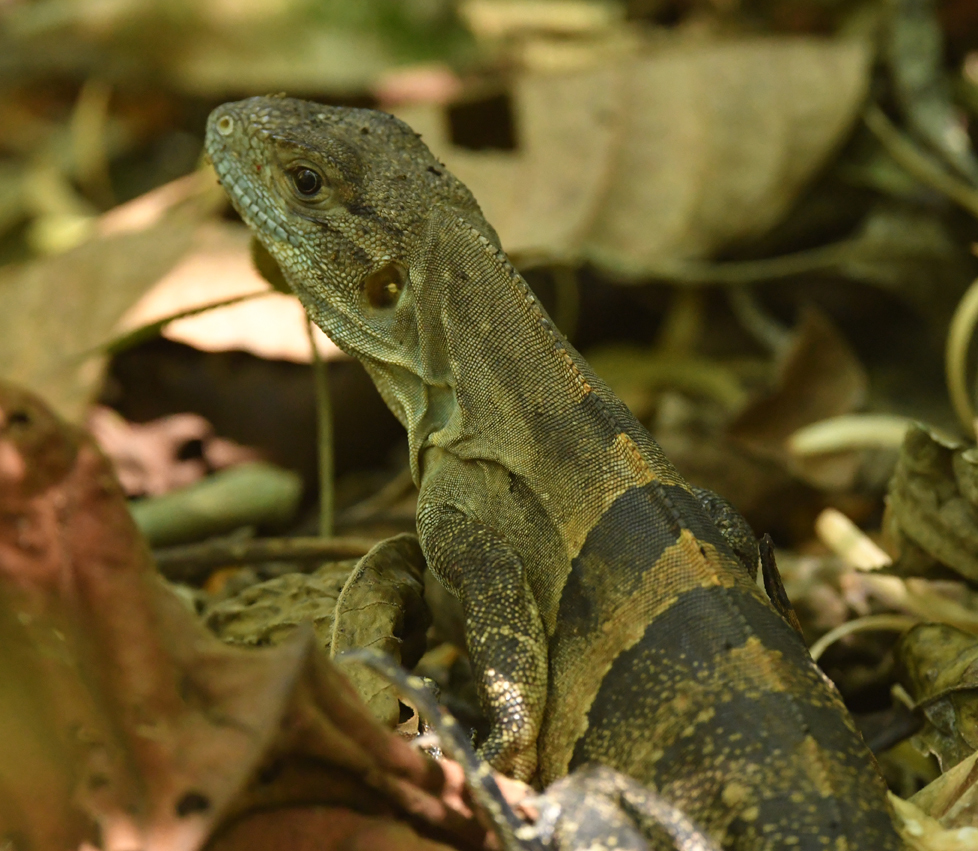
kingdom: Animalia
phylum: Chordata
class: Squamata
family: Iguanidae
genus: Ctenosaura
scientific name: Ctenosaura similis
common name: Black spiny-tailed iguana
